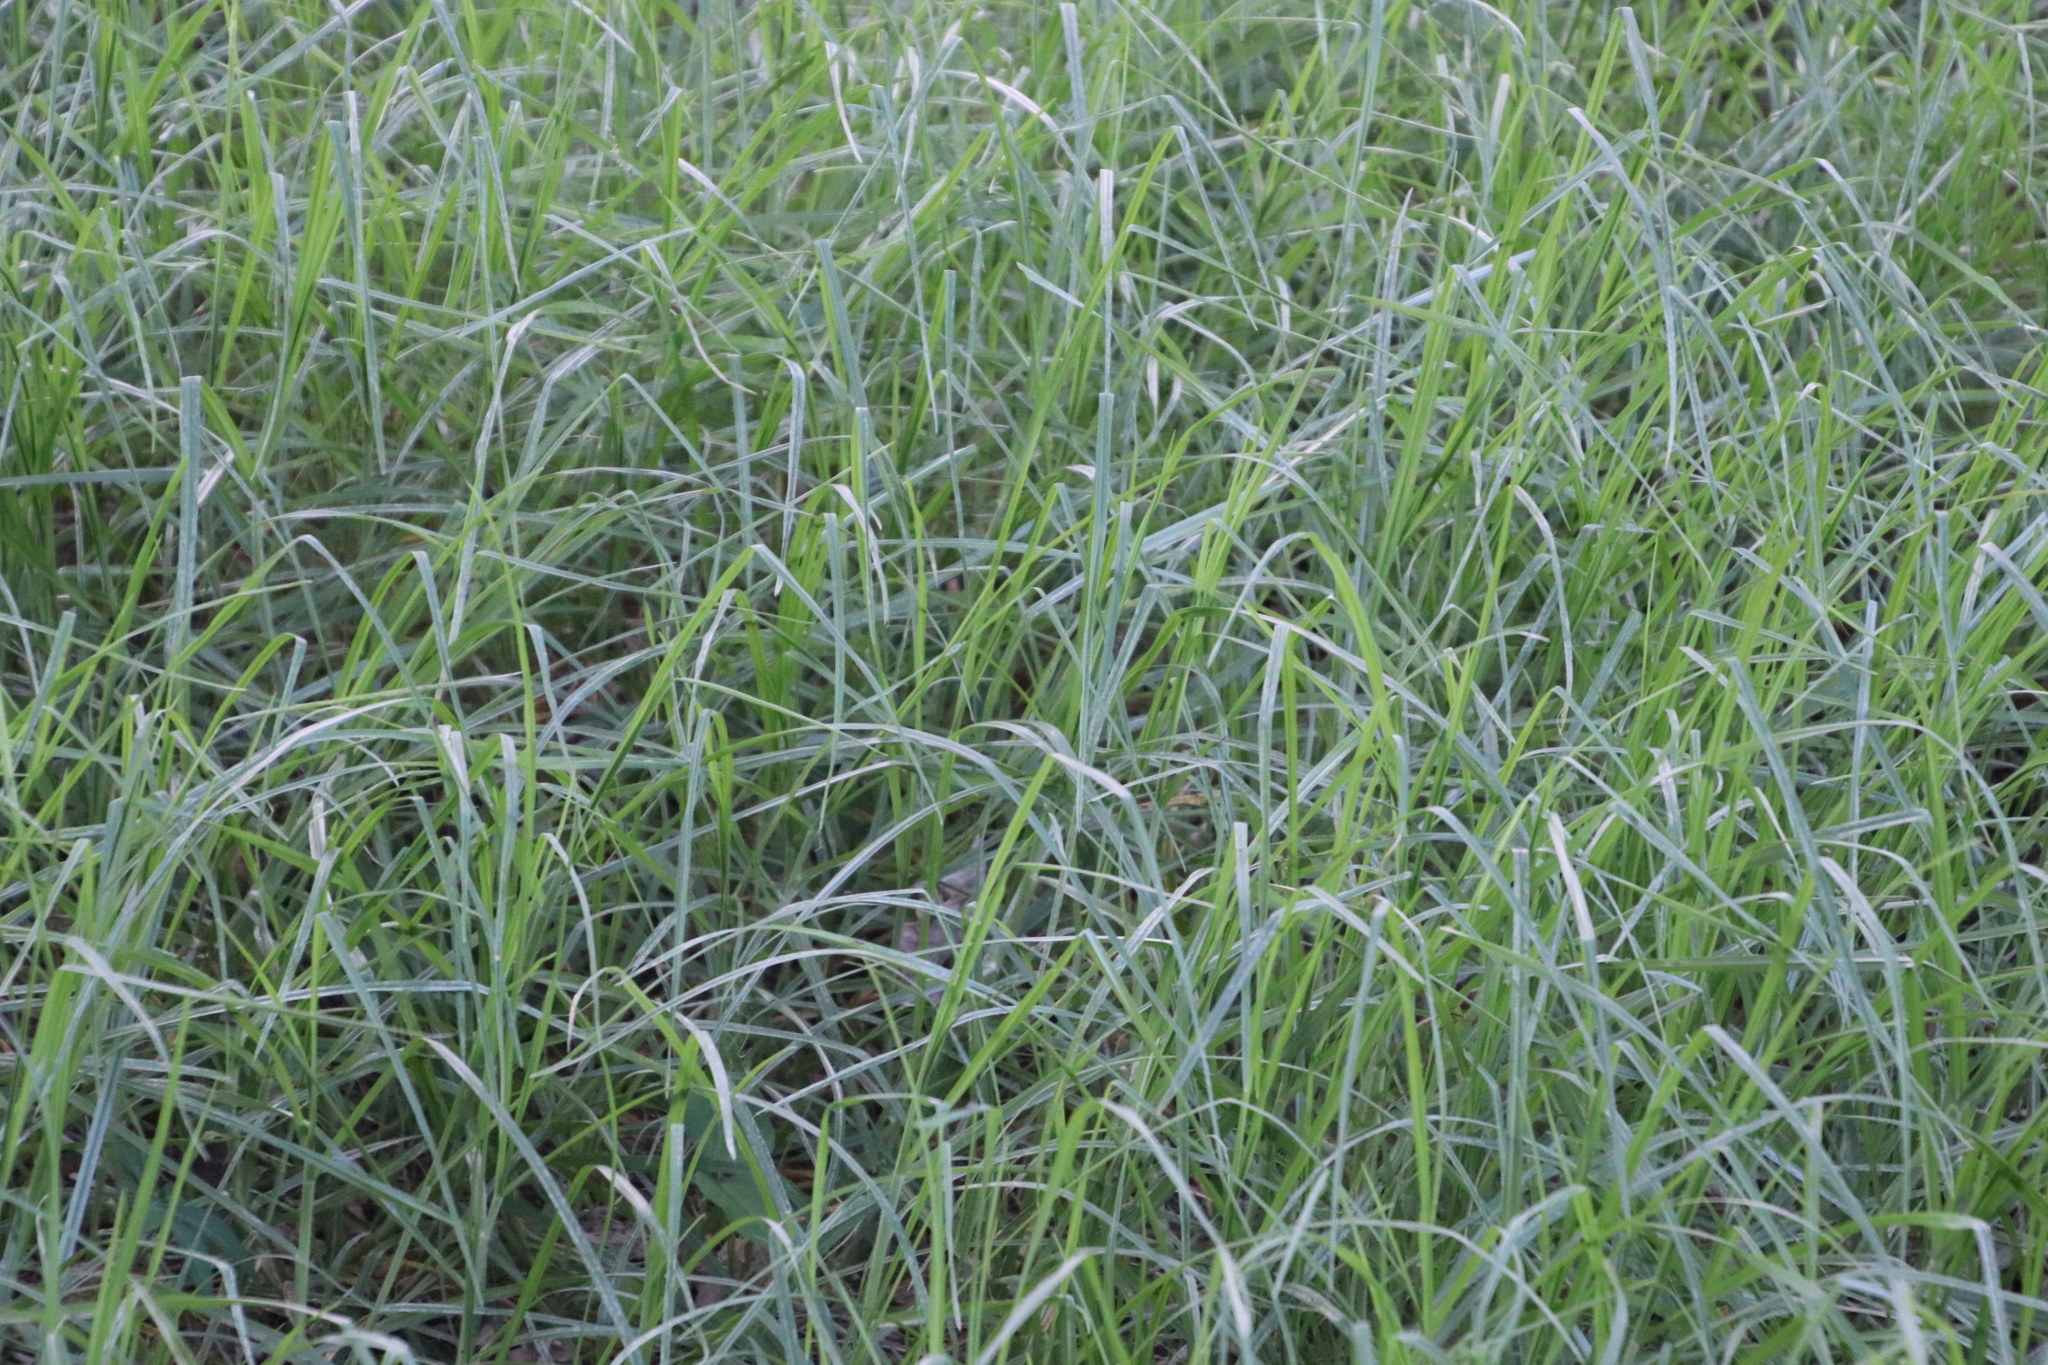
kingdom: Plantae
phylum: Tracheophyta
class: Liliopsida
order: Poales
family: Poaceae
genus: Cenchrus
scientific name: Cenchrus clandestinus
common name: Kikuyugrass
